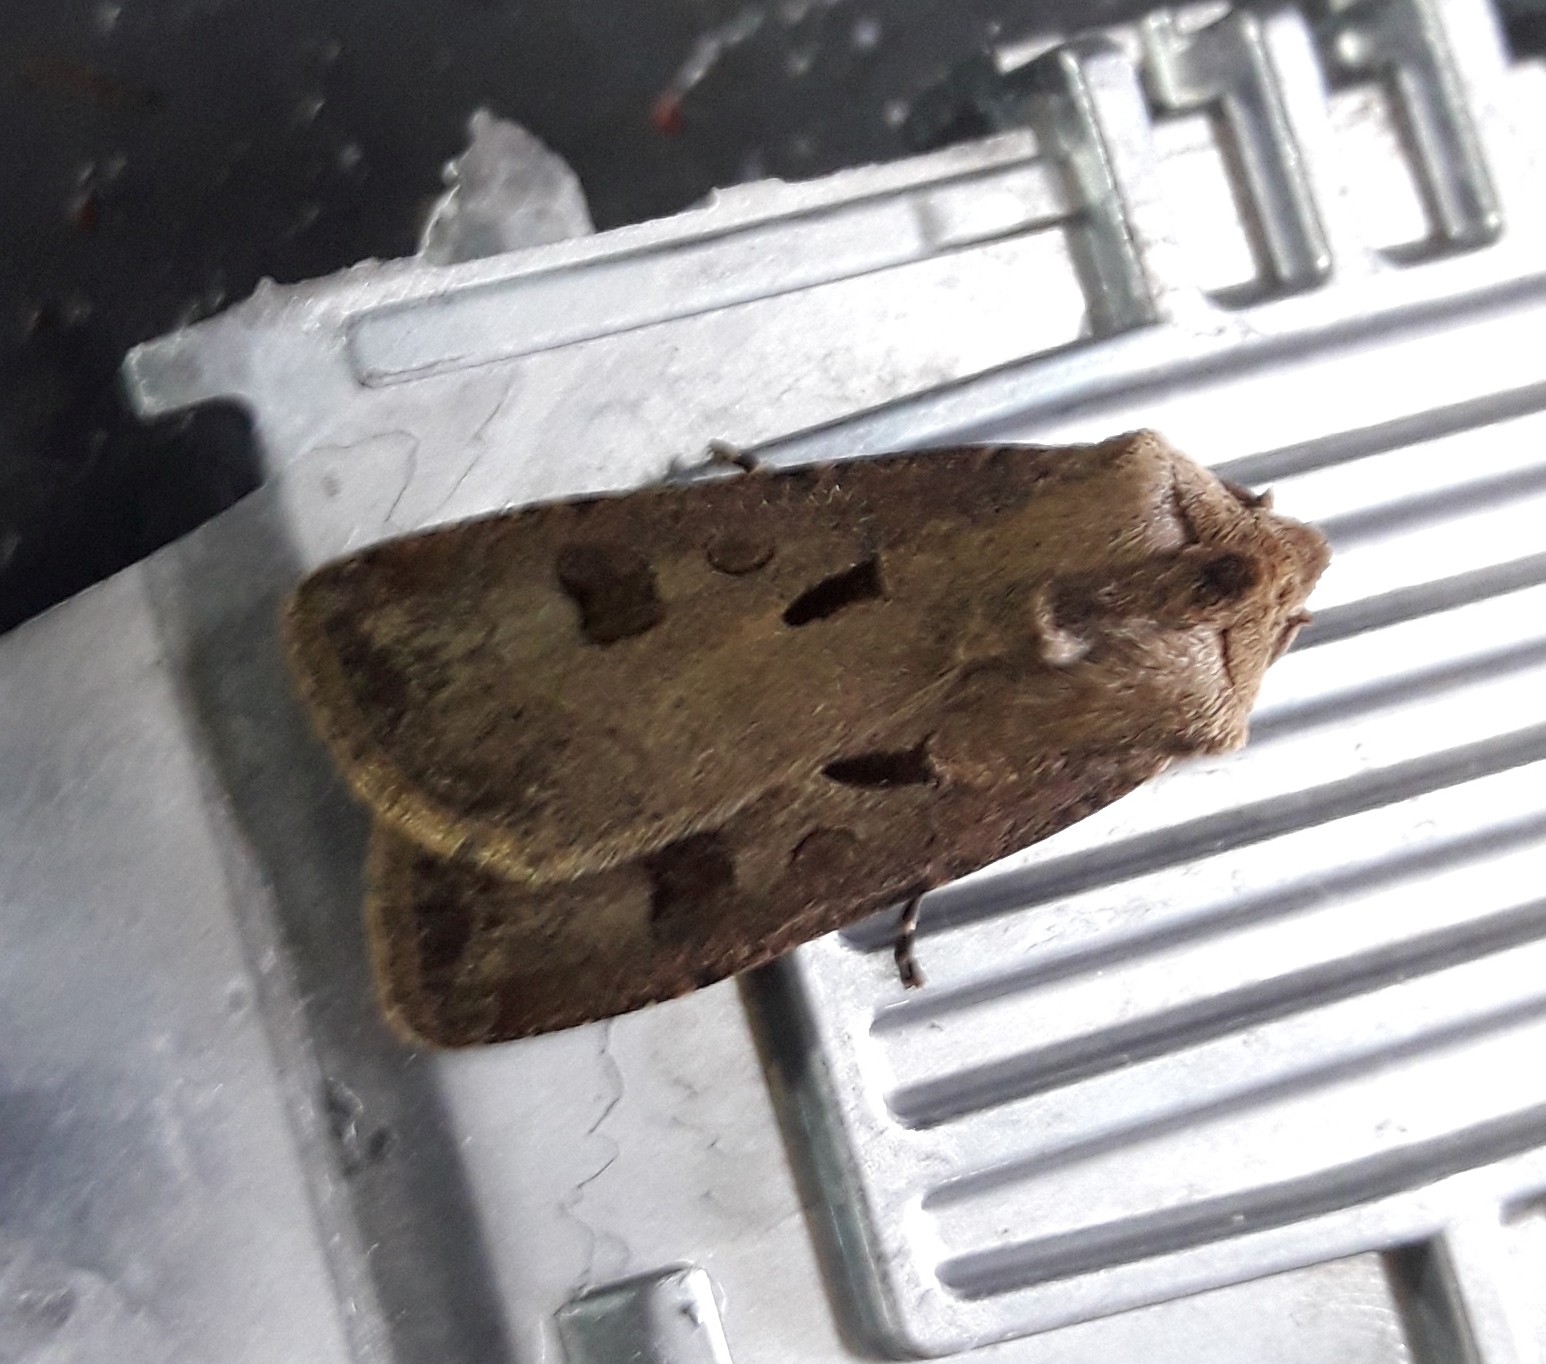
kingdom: Animalia
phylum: Arthropoda
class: Insecta
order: Lepidoptera
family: Noctuidae
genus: Agrotis
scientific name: Agrotis exclamationis
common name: Heart and dart
